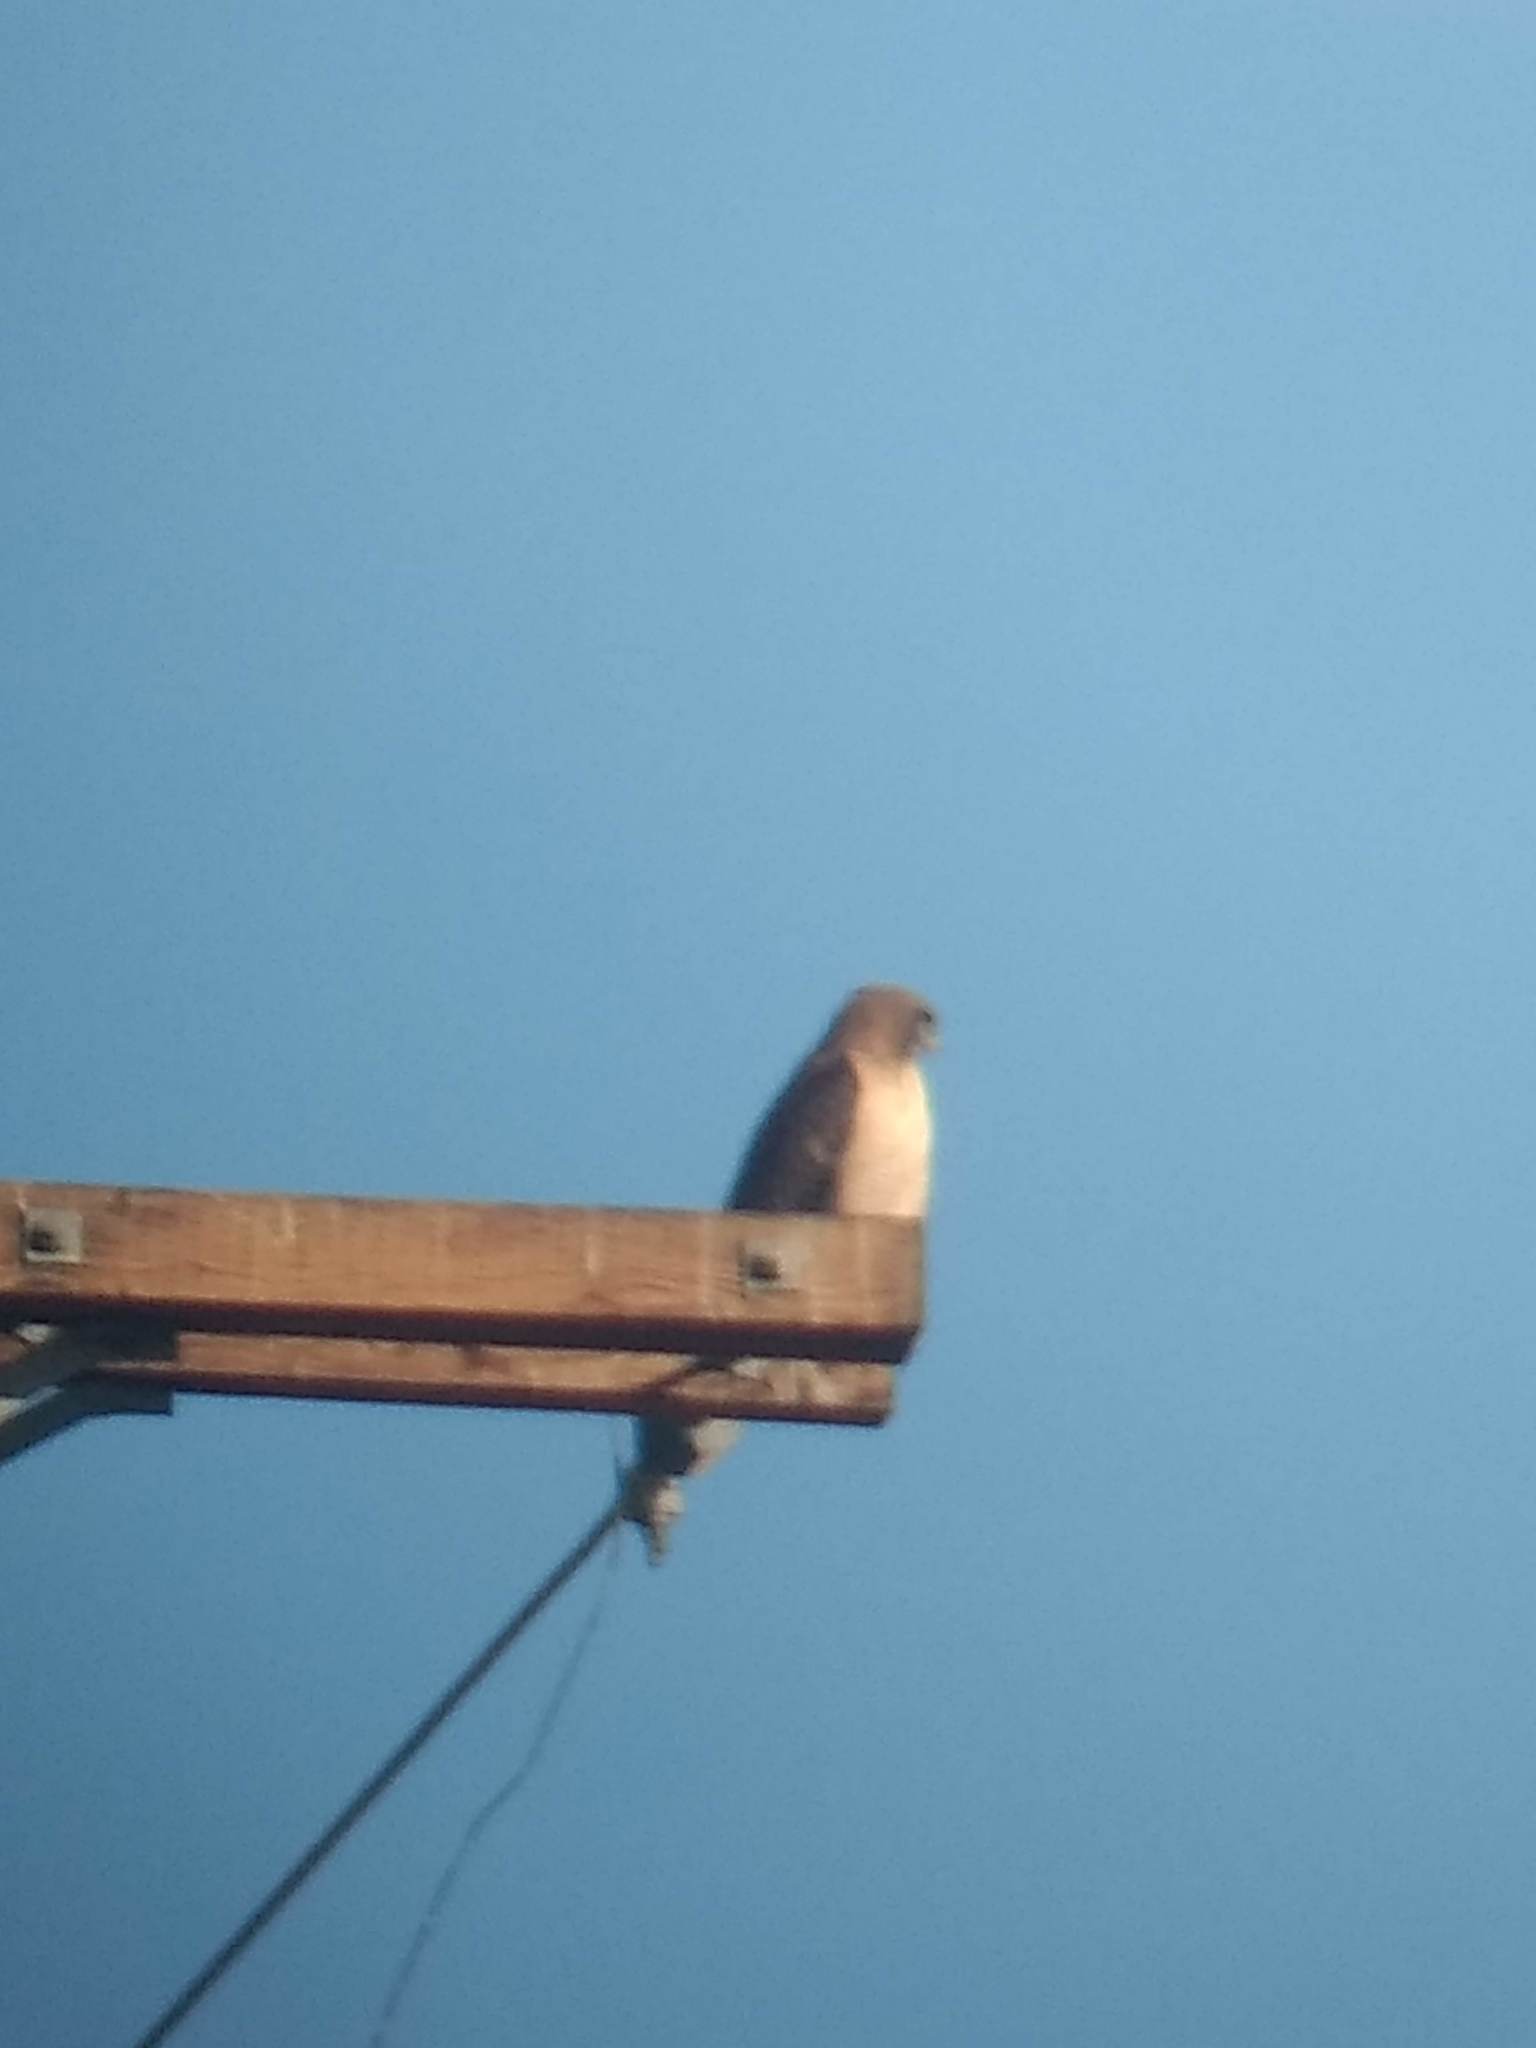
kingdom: Animalia
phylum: Chordata
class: Aves
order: Accipitriformes
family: Accipitridae
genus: Buteo
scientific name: Buteo jamaicensis
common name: Red-tailed hawk
